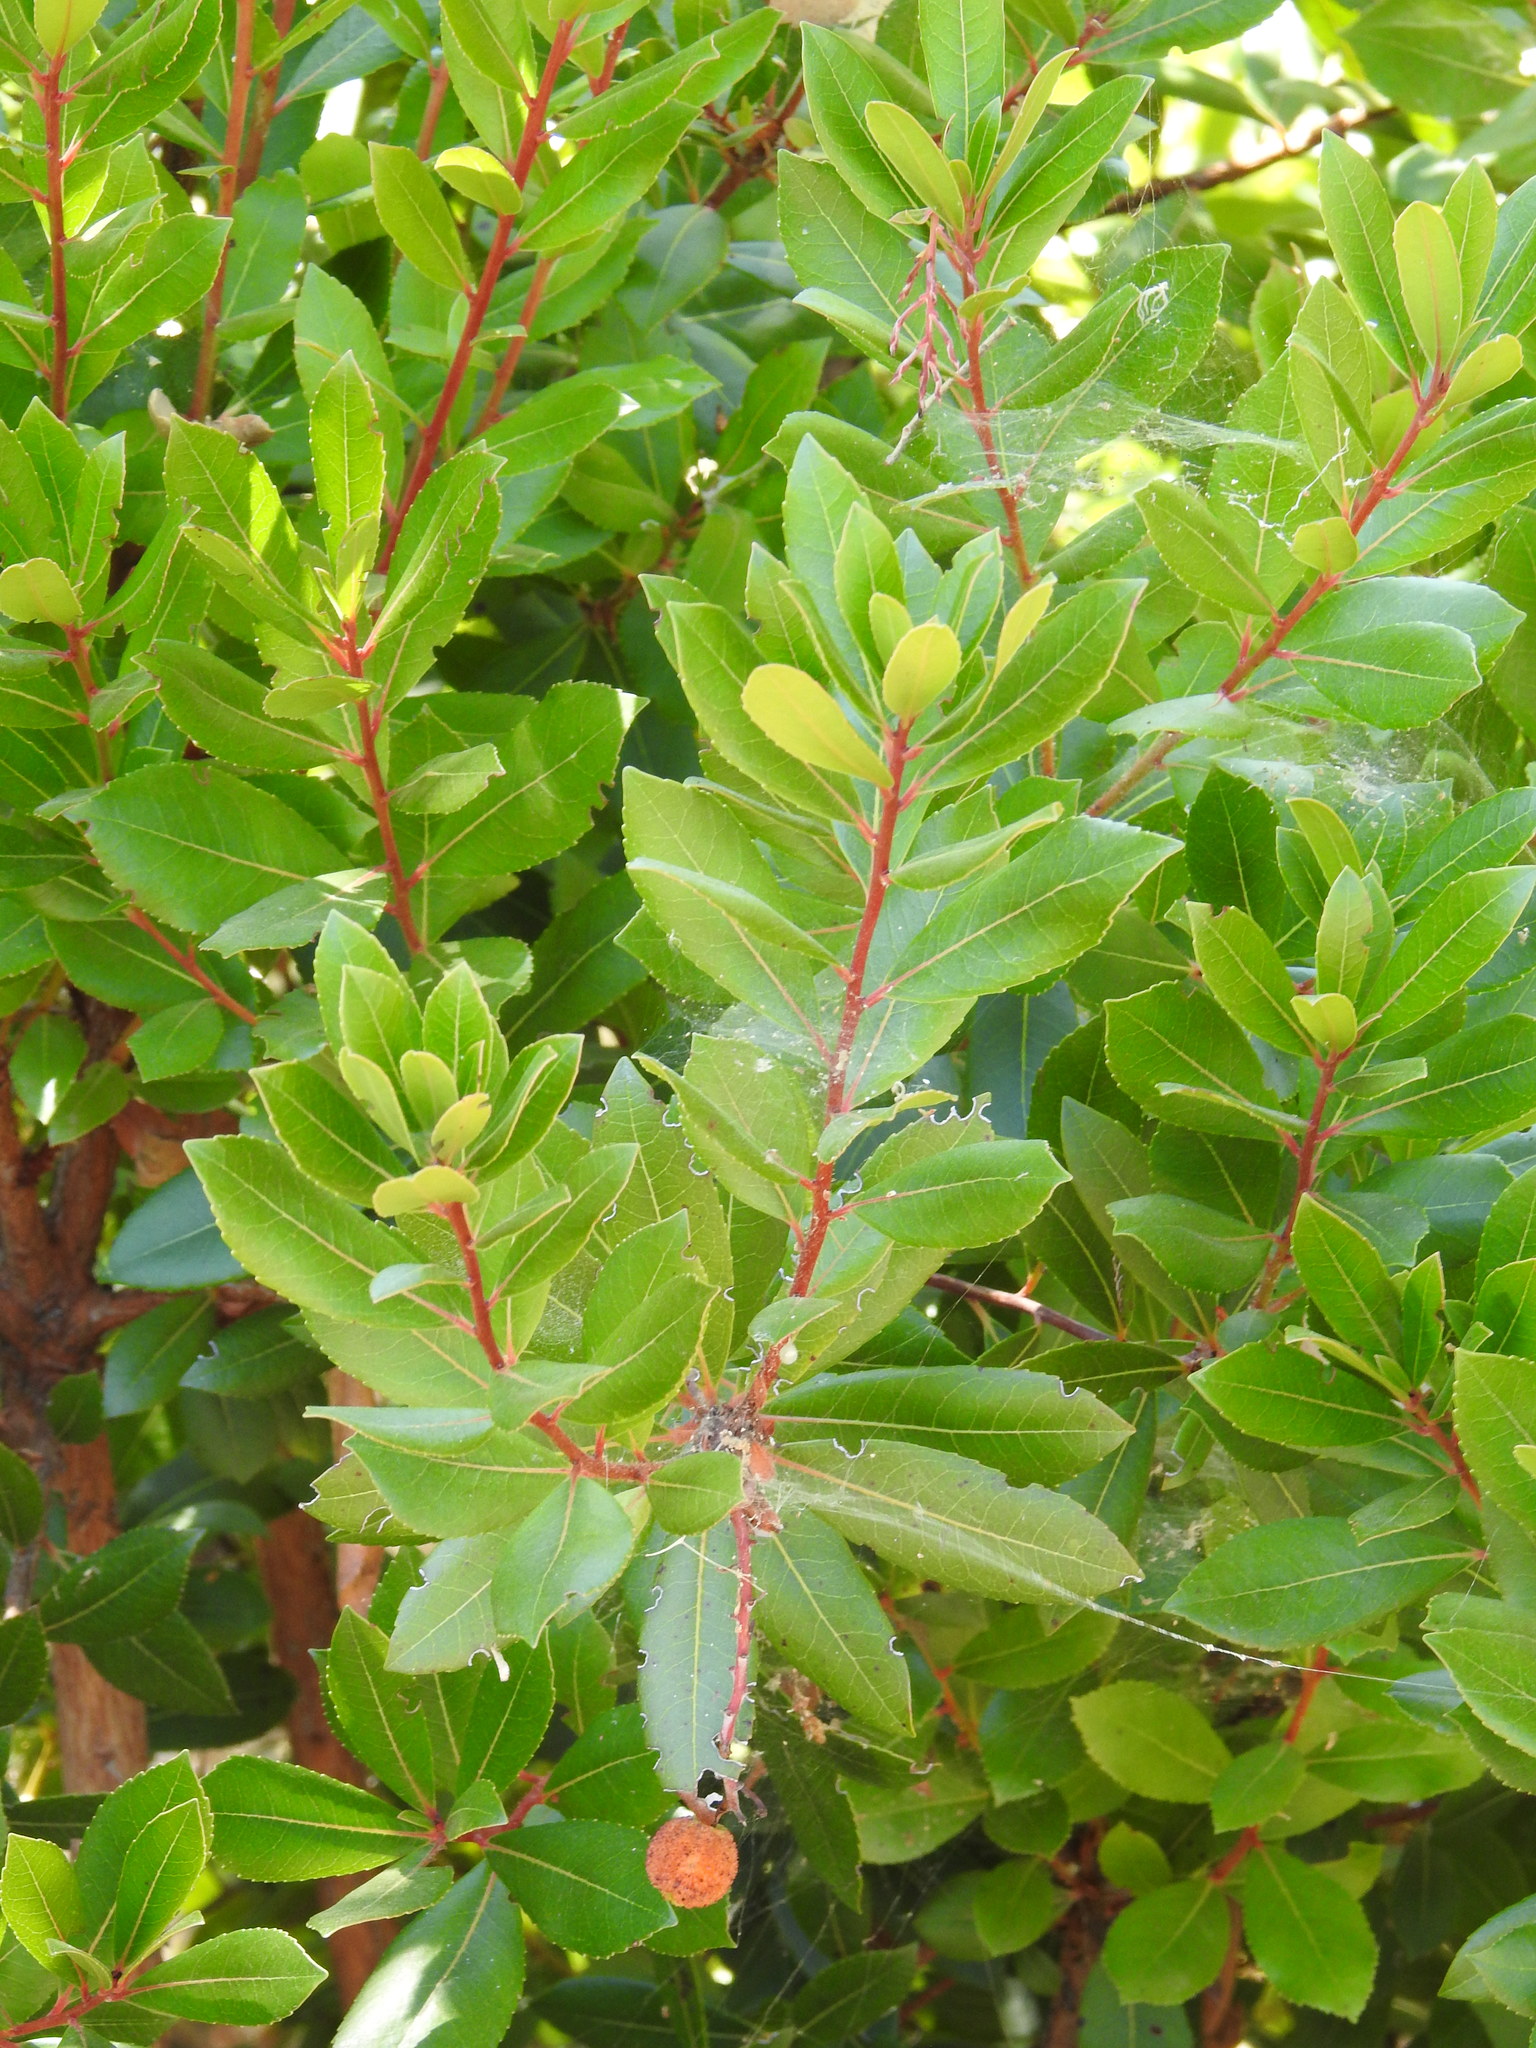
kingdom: Plantae
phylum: Tracheophyta
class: Magnoliopsida
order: Ericales
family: Ericaceae
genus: Arbutus
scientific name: Arbutus unedo
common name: Strawberry-tree
